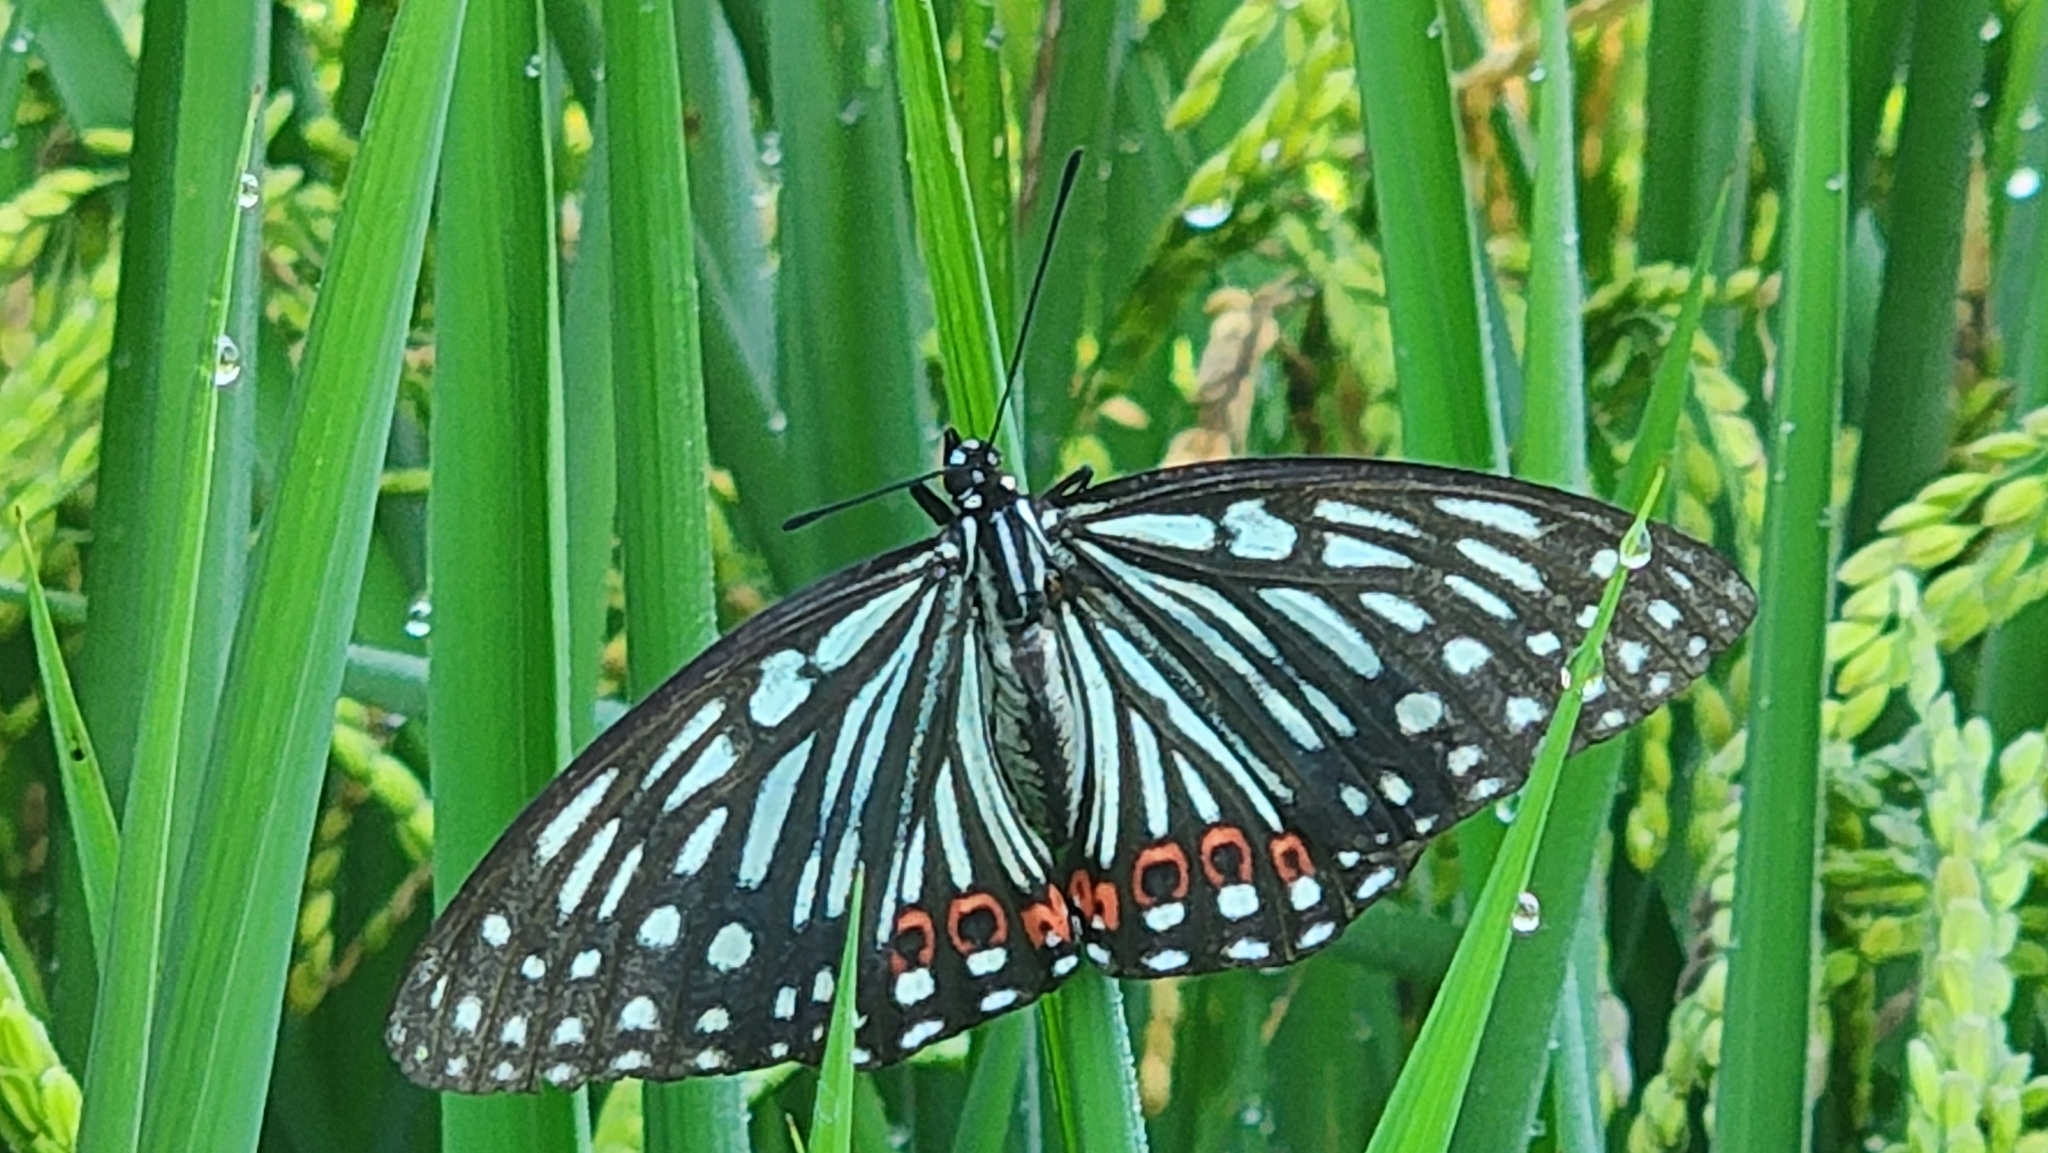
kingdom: Animalia
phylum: Arthropoda
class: Insecta
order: Lepidoptera
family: Nymphalidae
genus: Hestina
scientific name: Hestina assimilis
